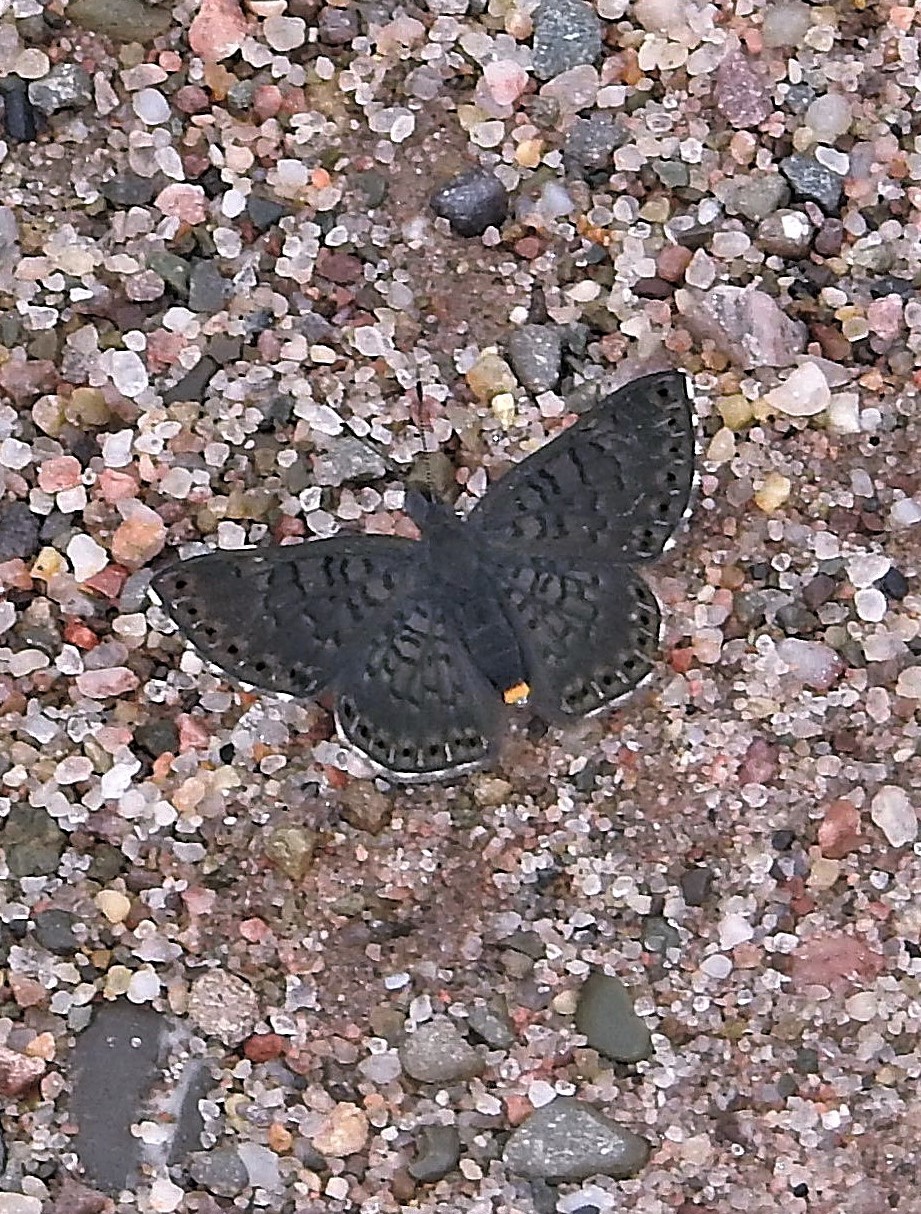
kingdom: Animalia
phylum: Arthropoda
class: Insecta
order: Lepidoptera
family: Riodinidae
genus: Nelone
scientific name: Nelone Exoplisia myrtis
